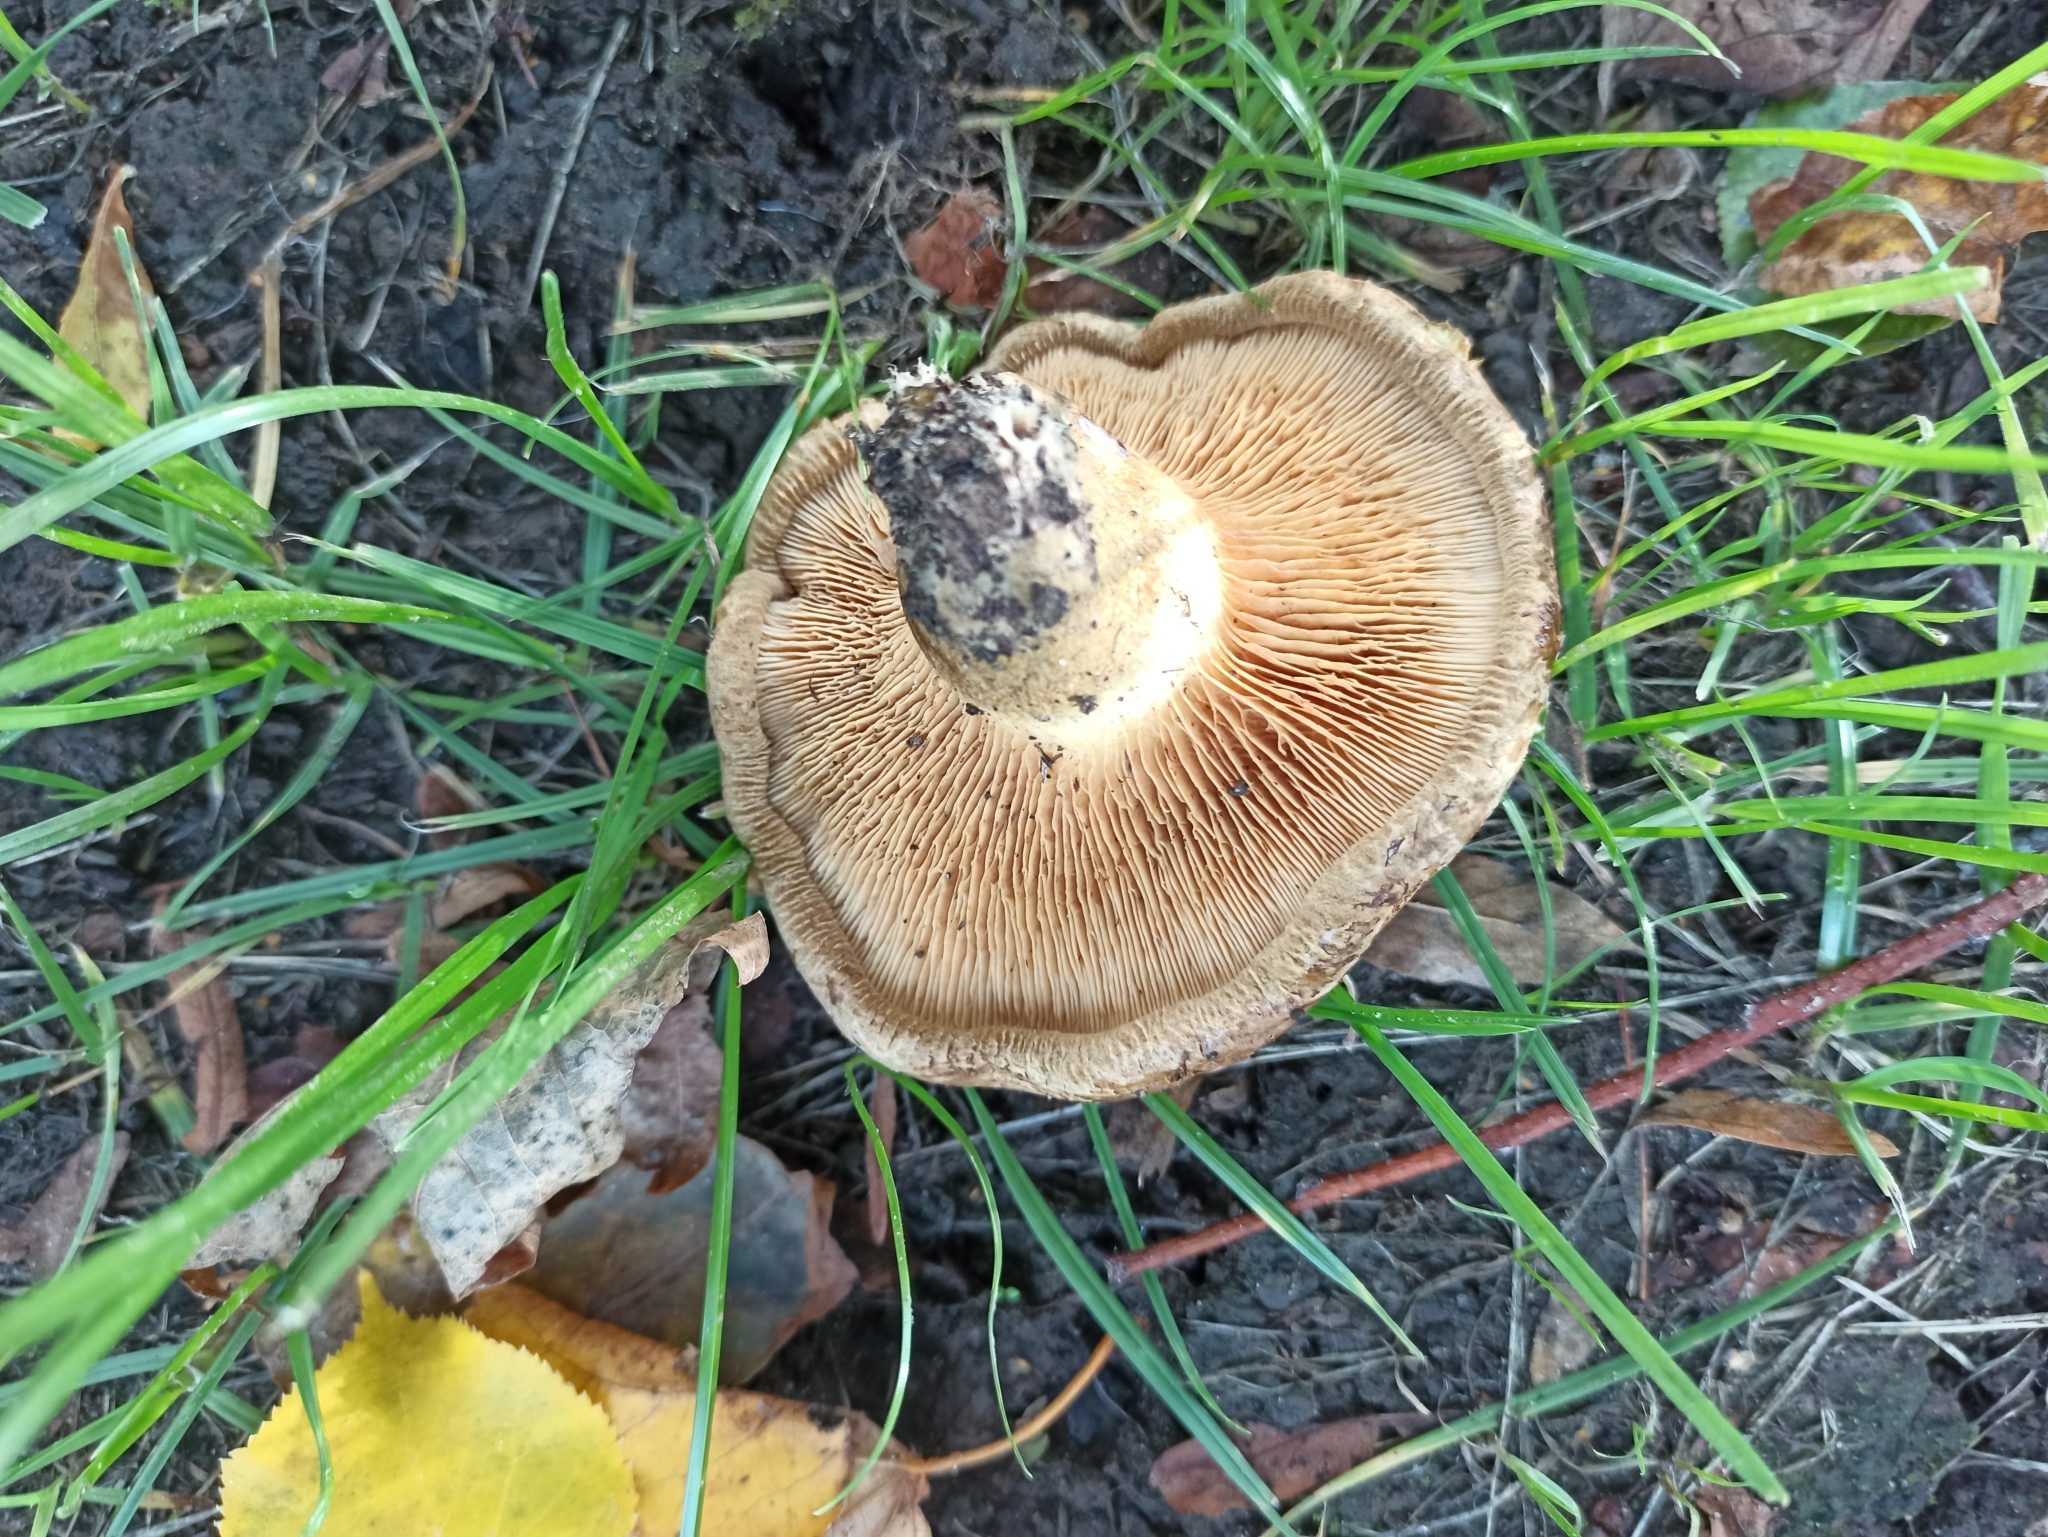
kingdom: Fungi
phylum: Basidiomycota
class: Agaricomycetes
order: Boletales
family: Paxillaceae
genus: Paxillus
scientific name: Paxillus involutus
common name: Brown roll rim
